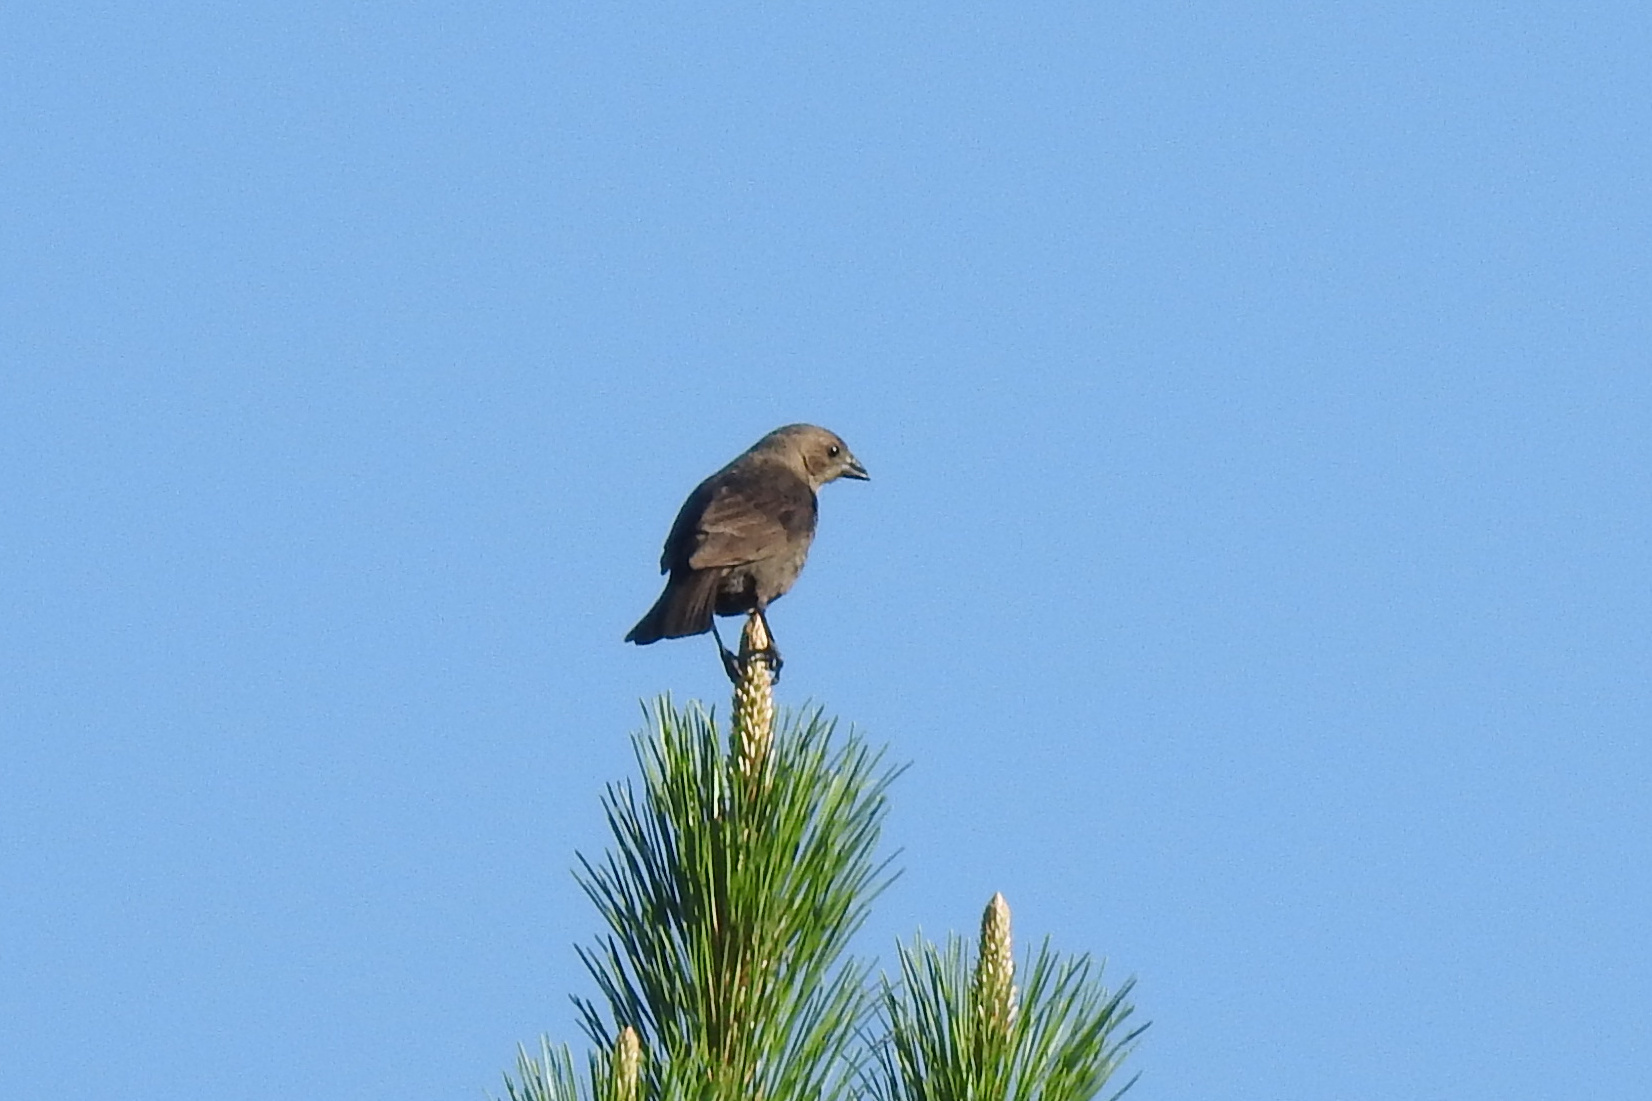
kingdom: Animalia
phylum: Chordata
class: Aves
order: Passeriformes
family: Icteridae
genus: Molothrus
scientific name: Molothrus ater
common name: Brown-headed cowbird
